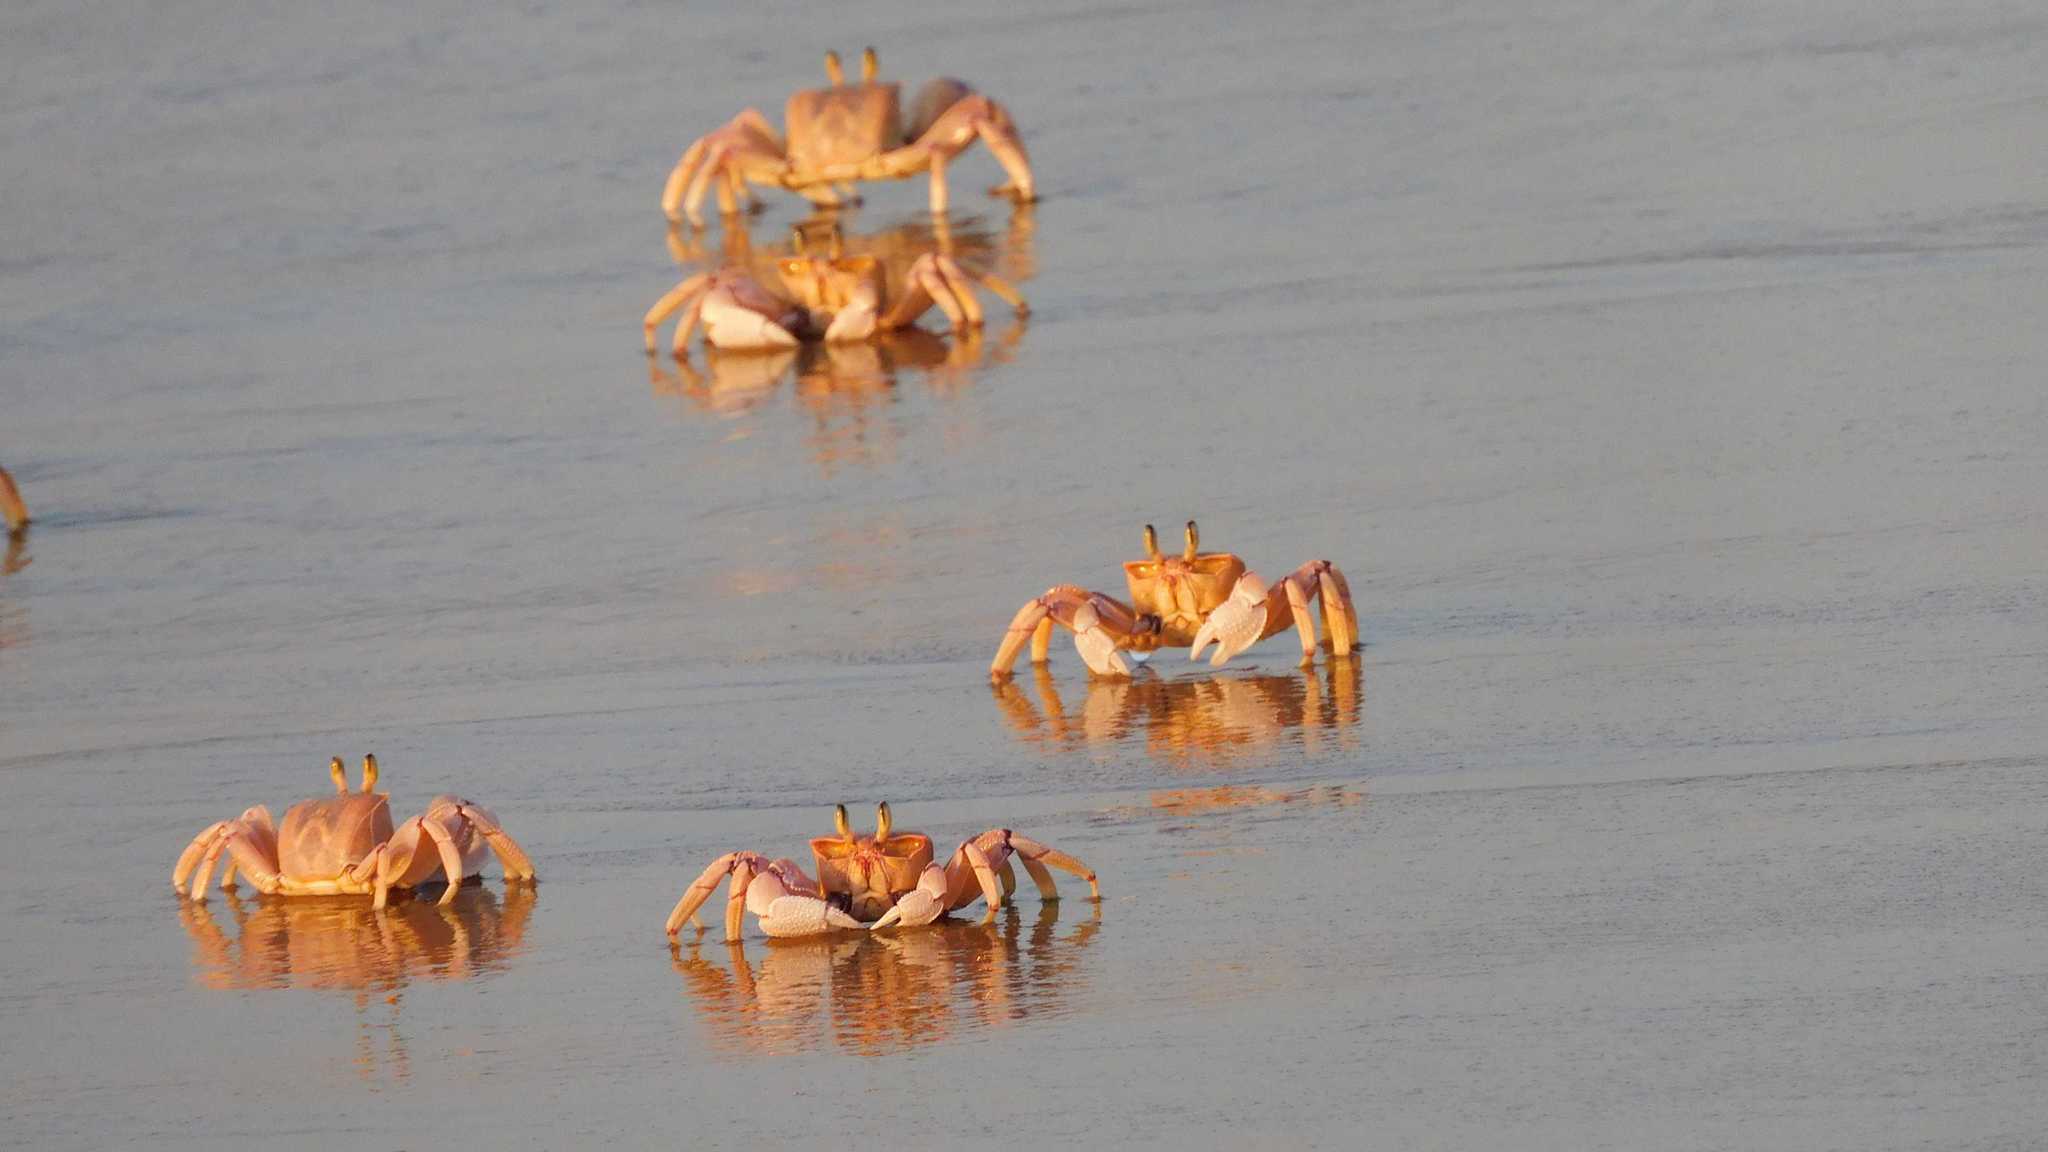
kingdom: Animalia
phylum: Arthropoda
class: Malacostraca
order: Decapoda
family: Ocypodidae
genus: Ocypode
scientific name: Ocypode ryderi
